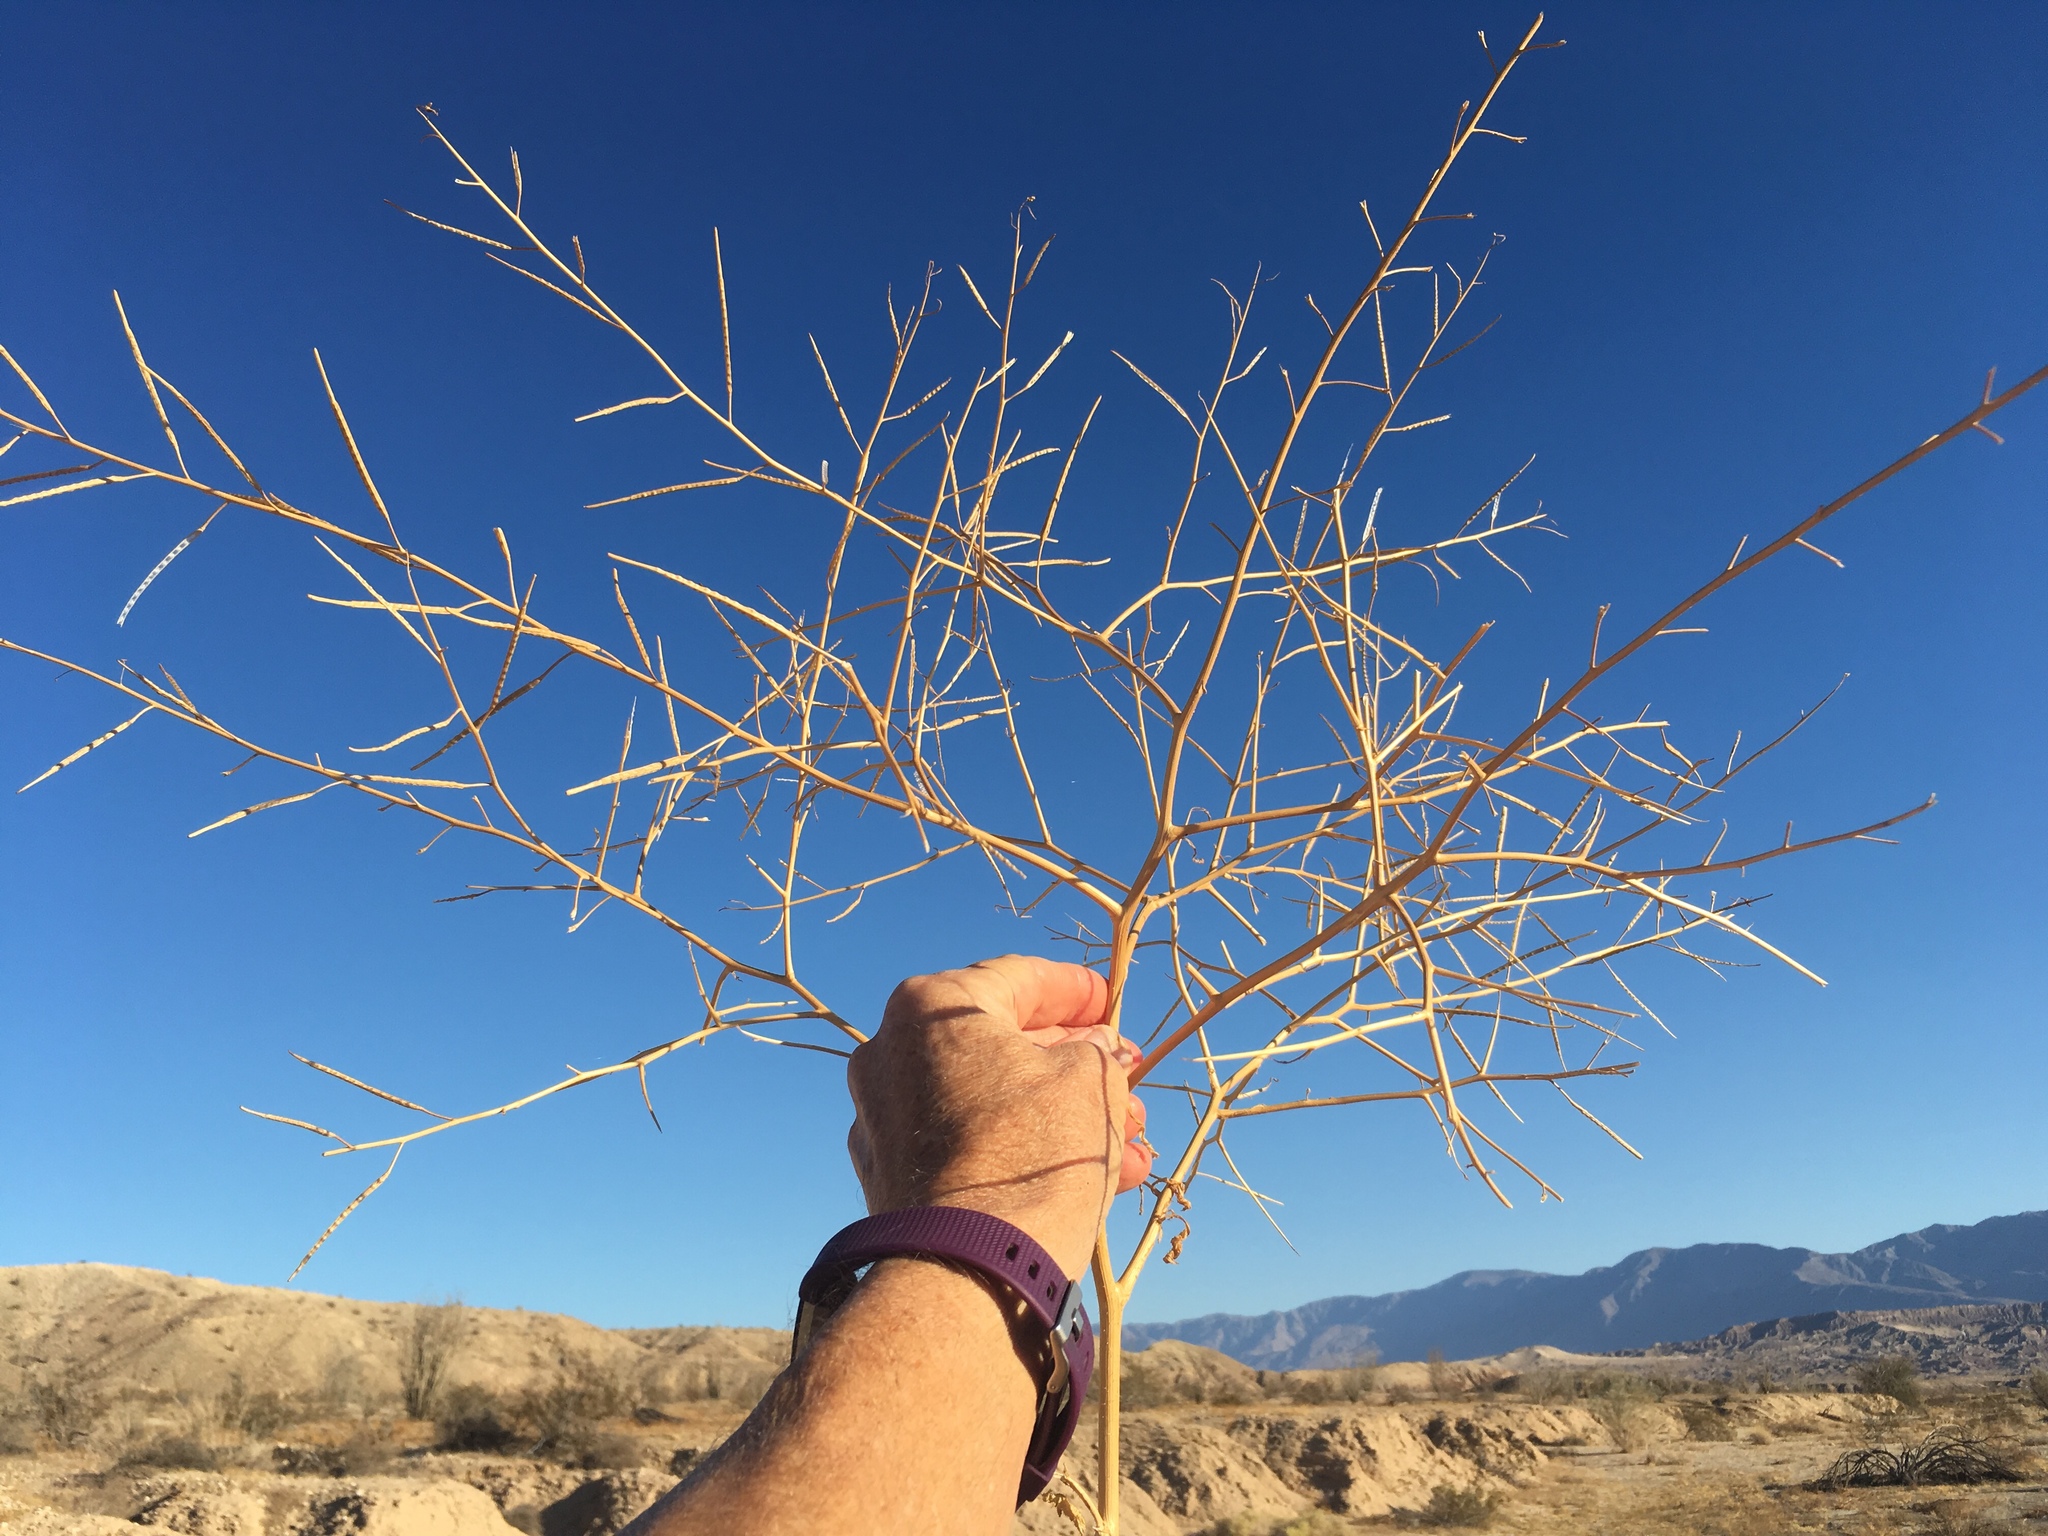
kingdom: Plantae
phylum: Tracheophyta
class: Magnoliopsida
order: Brassicales
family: Brassicaceae
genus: Brassica
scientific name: Brassica tournefortii
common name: Pale cabbage
